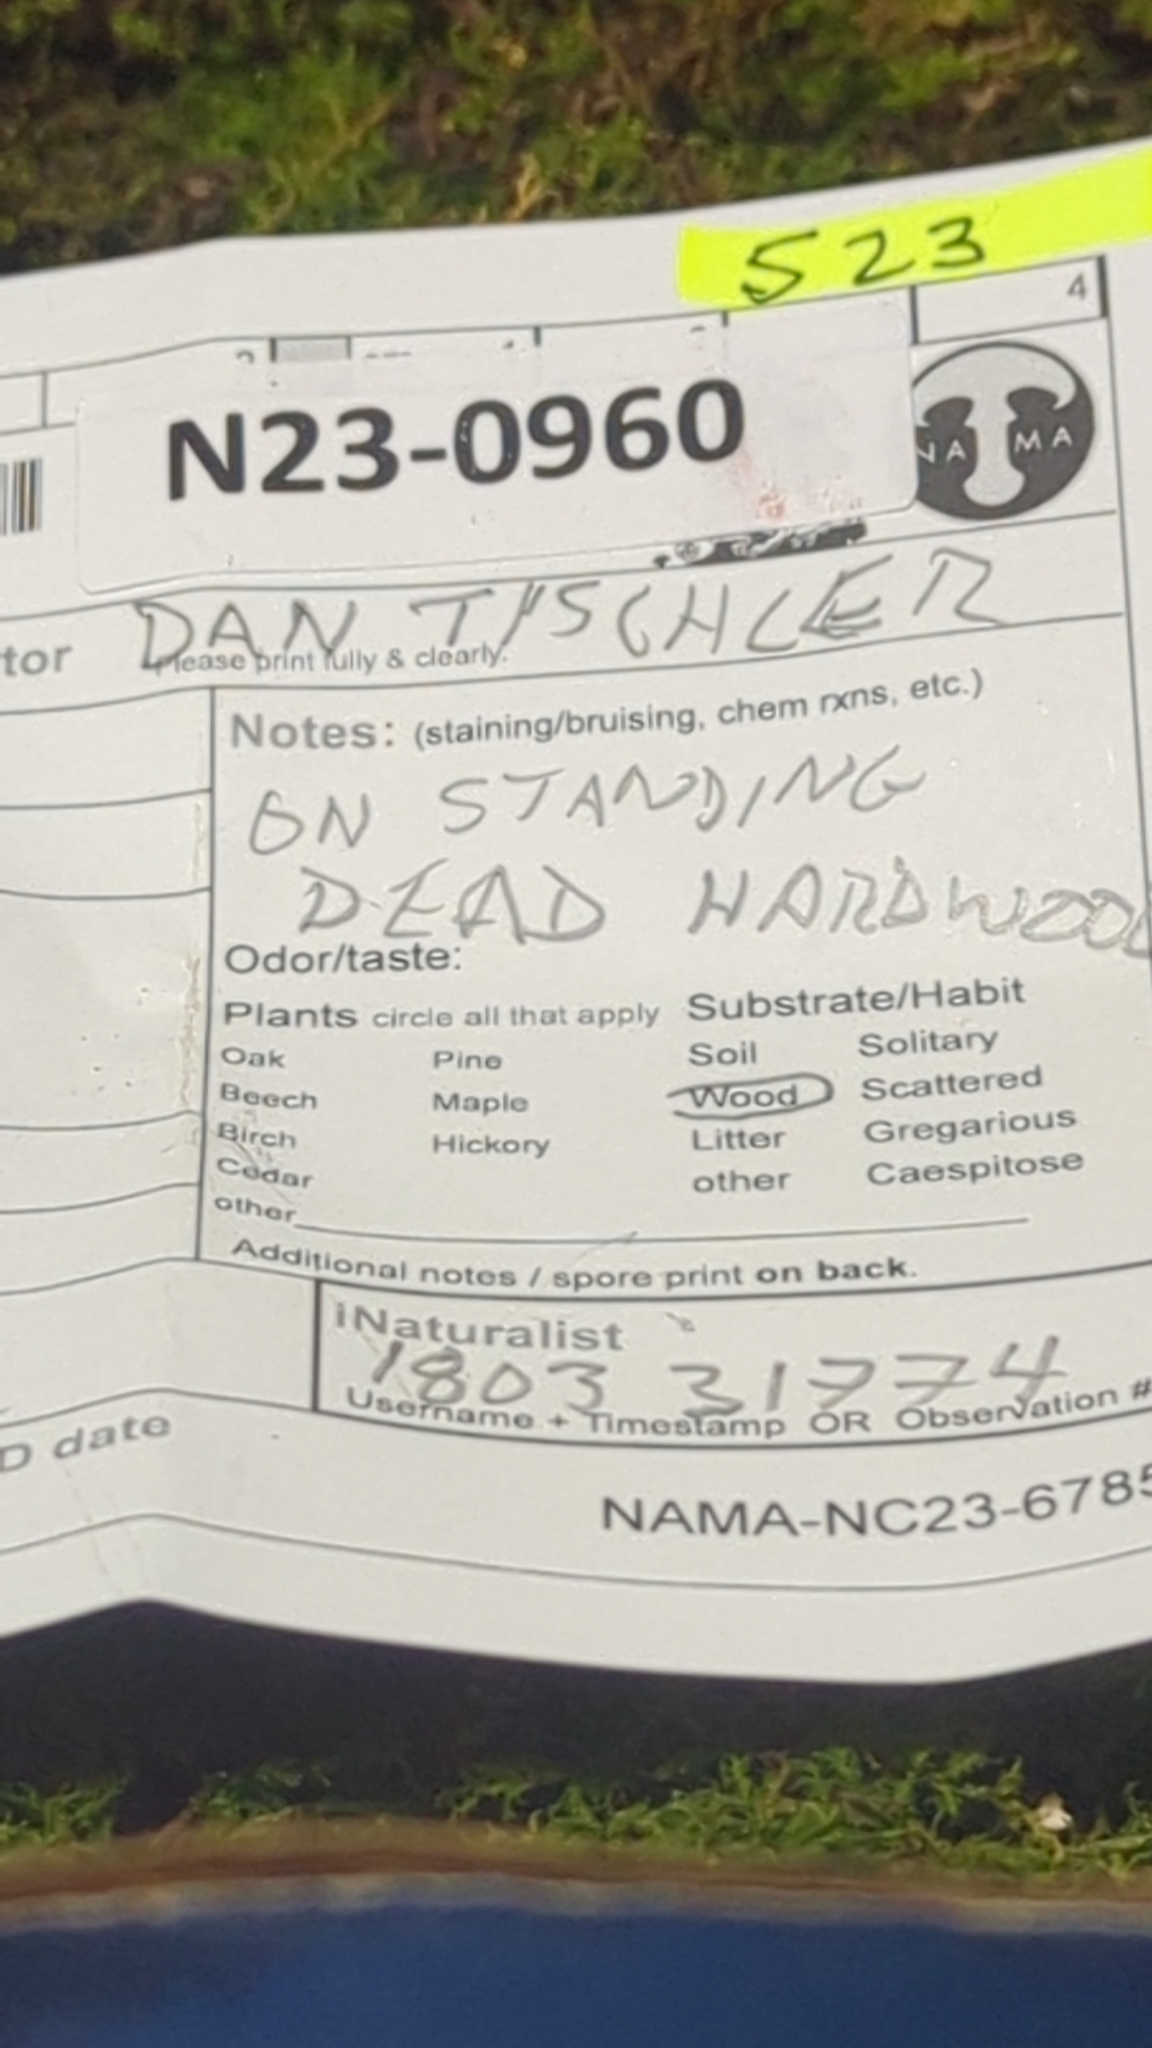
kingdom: Fungi
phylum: Basidiomycota
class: Atractiellomycetes
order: Atractiellales
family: Phleogenaceae
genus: Phleogena
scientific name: Phleogena faginea
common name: Fenugreek stalkball
